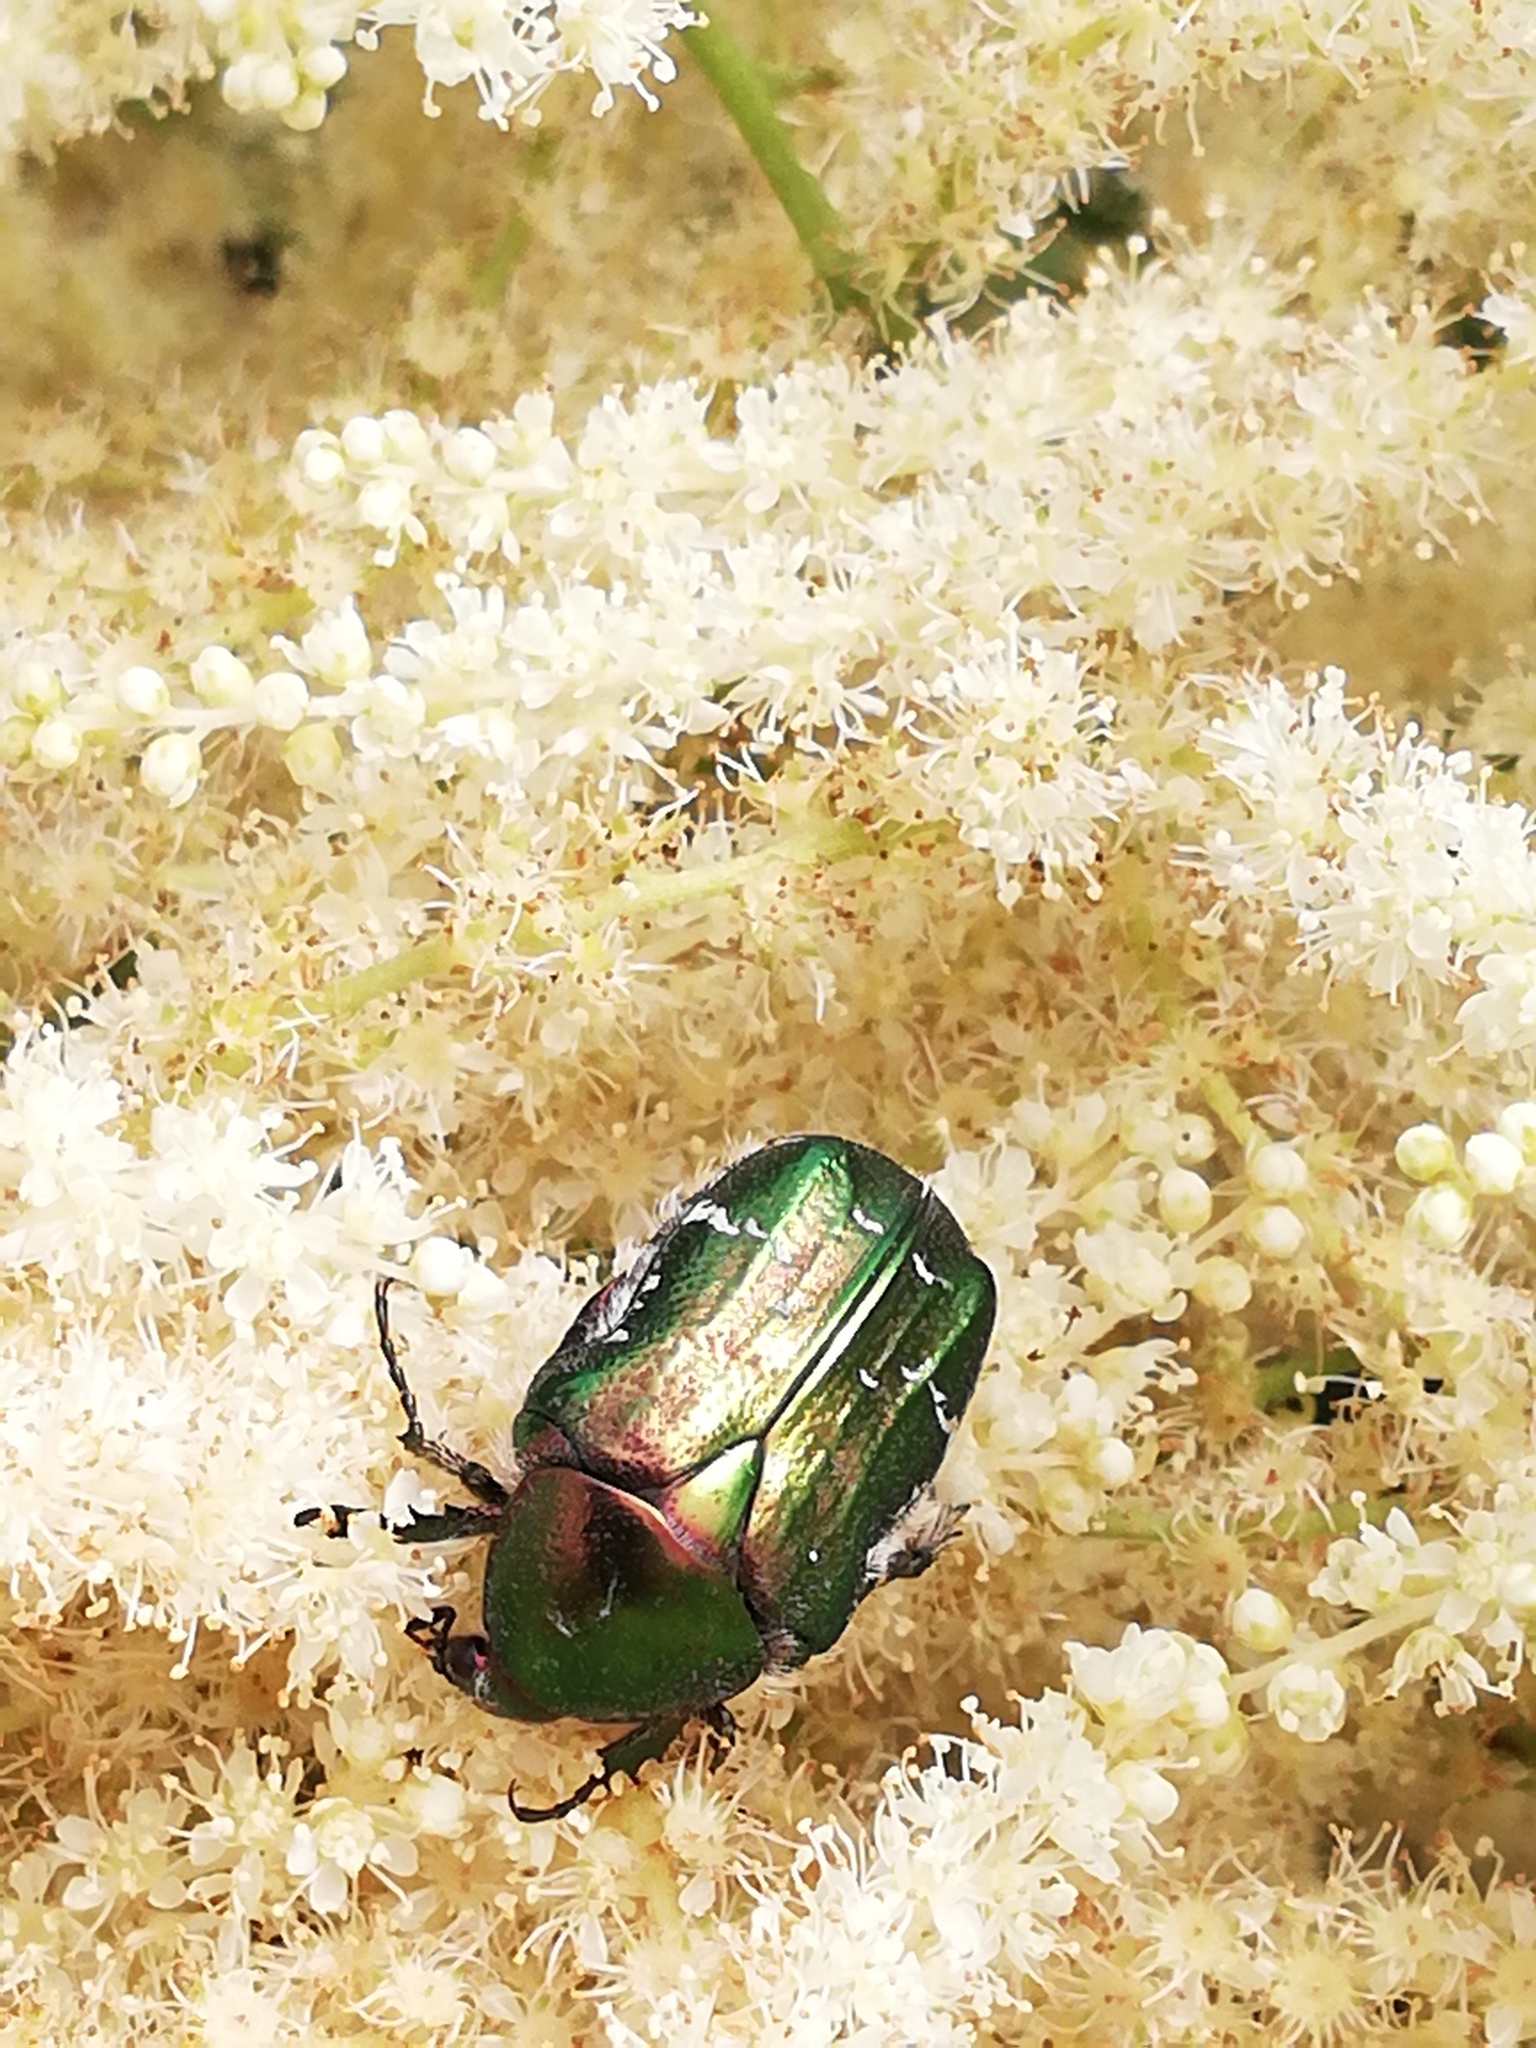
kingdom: Animalia
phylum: Arthropoda
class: Insecta
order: Coleoptera
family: Scarabaeidae
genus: Cetonia
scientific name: Cetonia aurata
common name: Rose chafer
